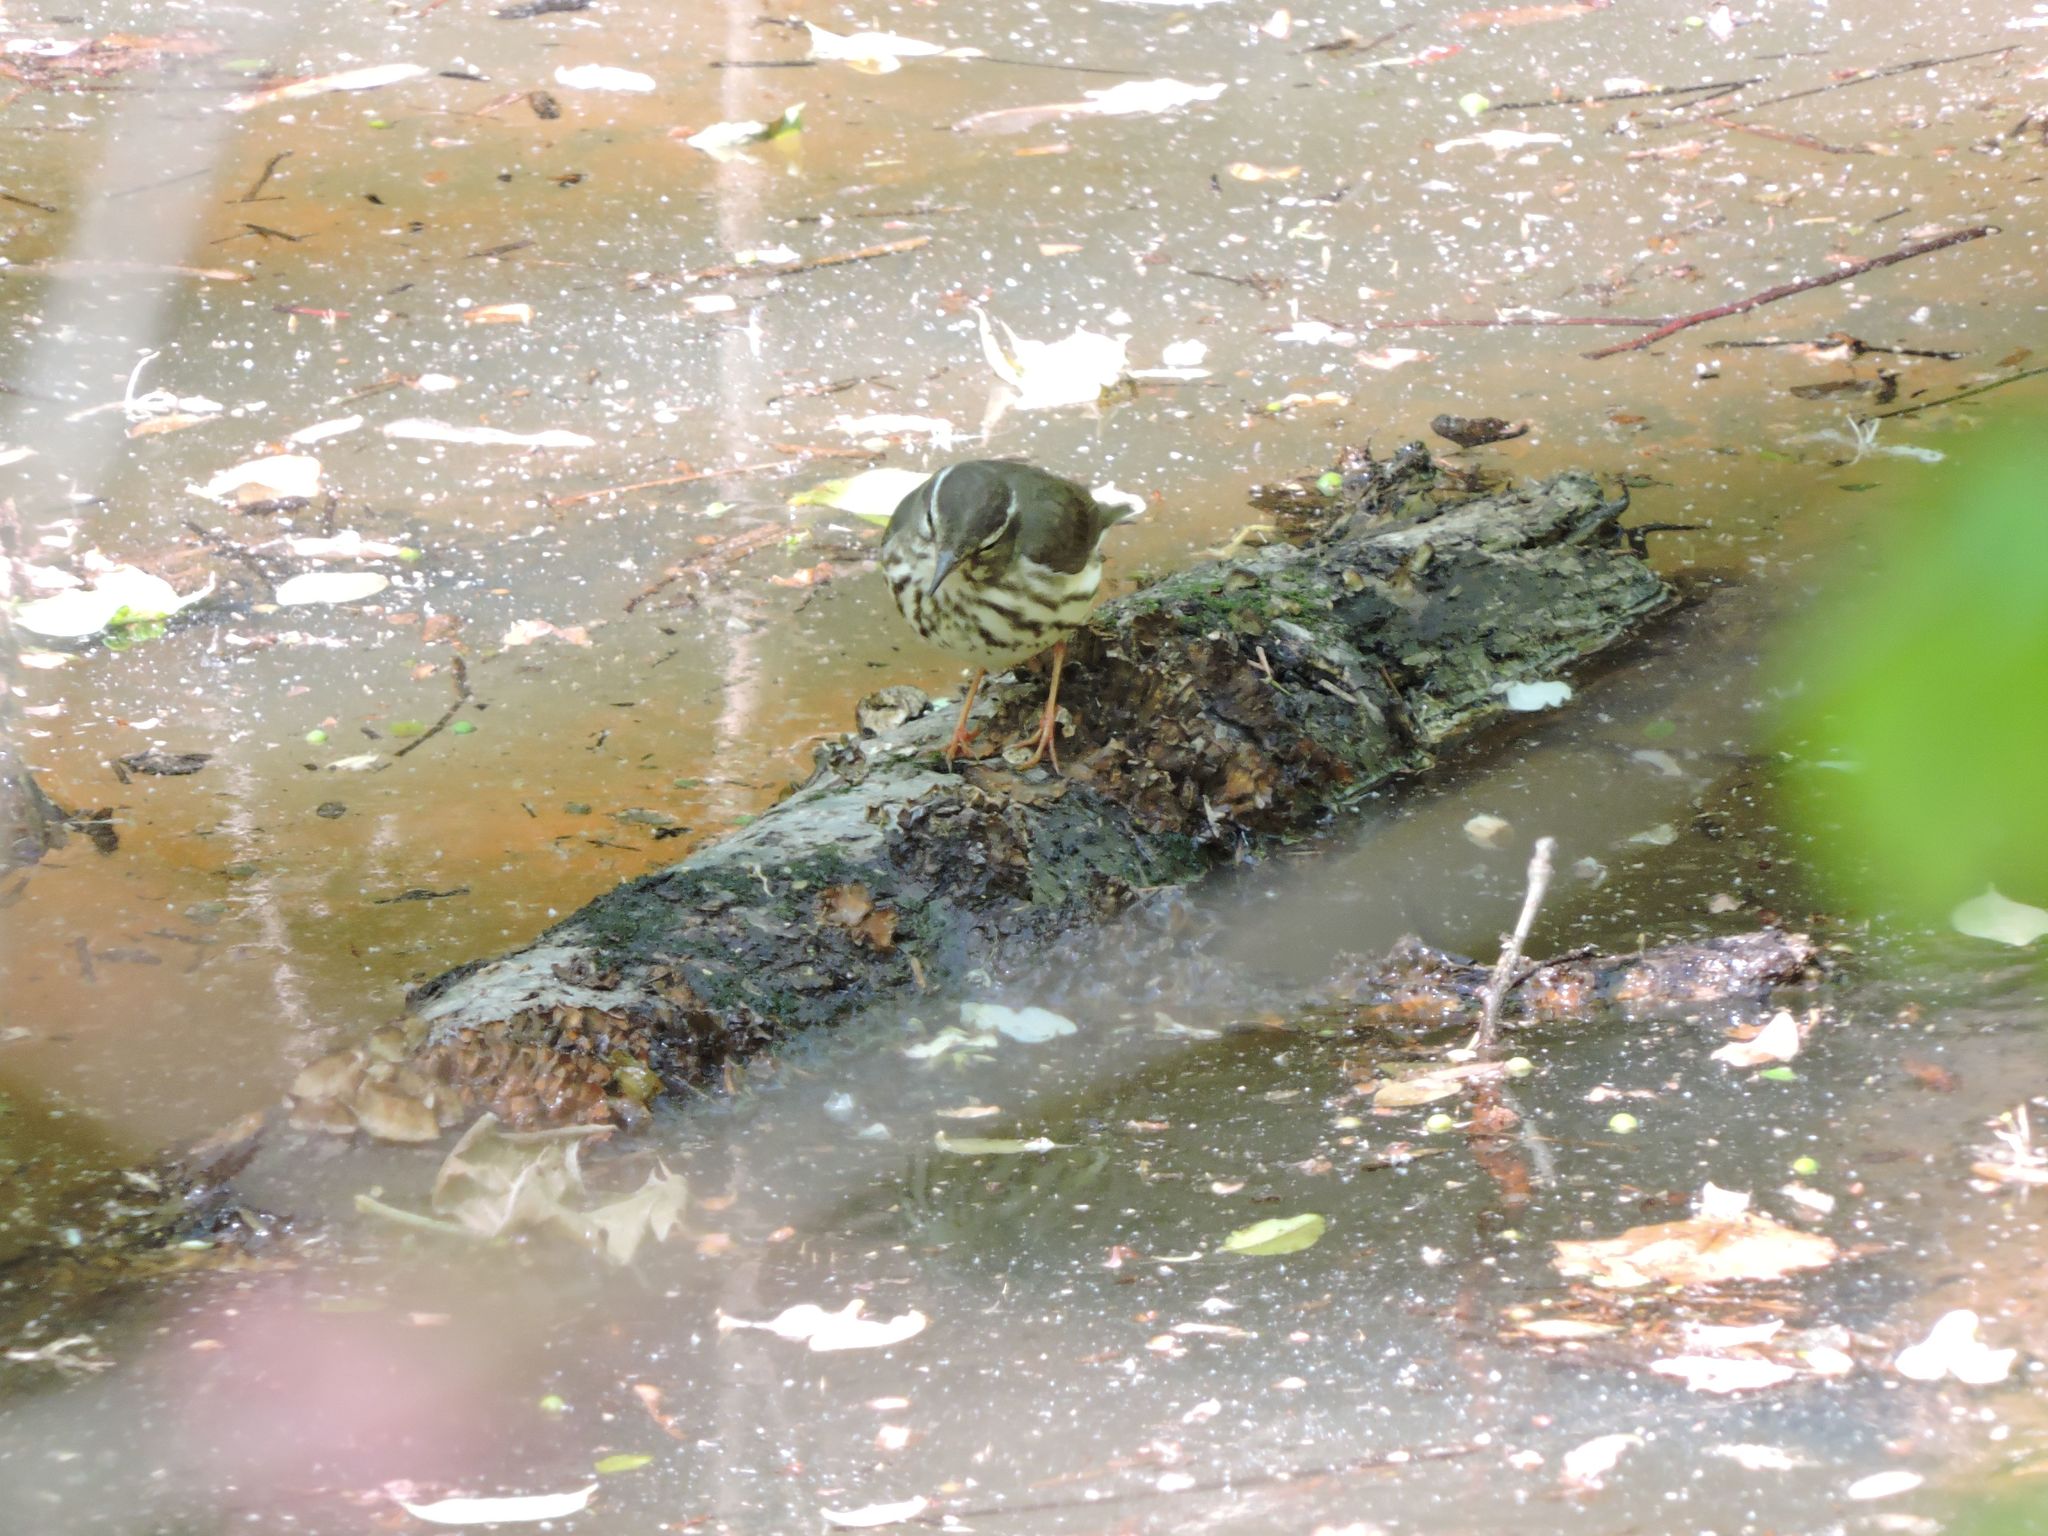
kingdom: Animalia
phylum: Chordata
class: Aves
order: Passeriformes
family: Parulidae
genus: Parkesia
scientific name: Parkesia motacilla
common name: Louisiana waterthrush
